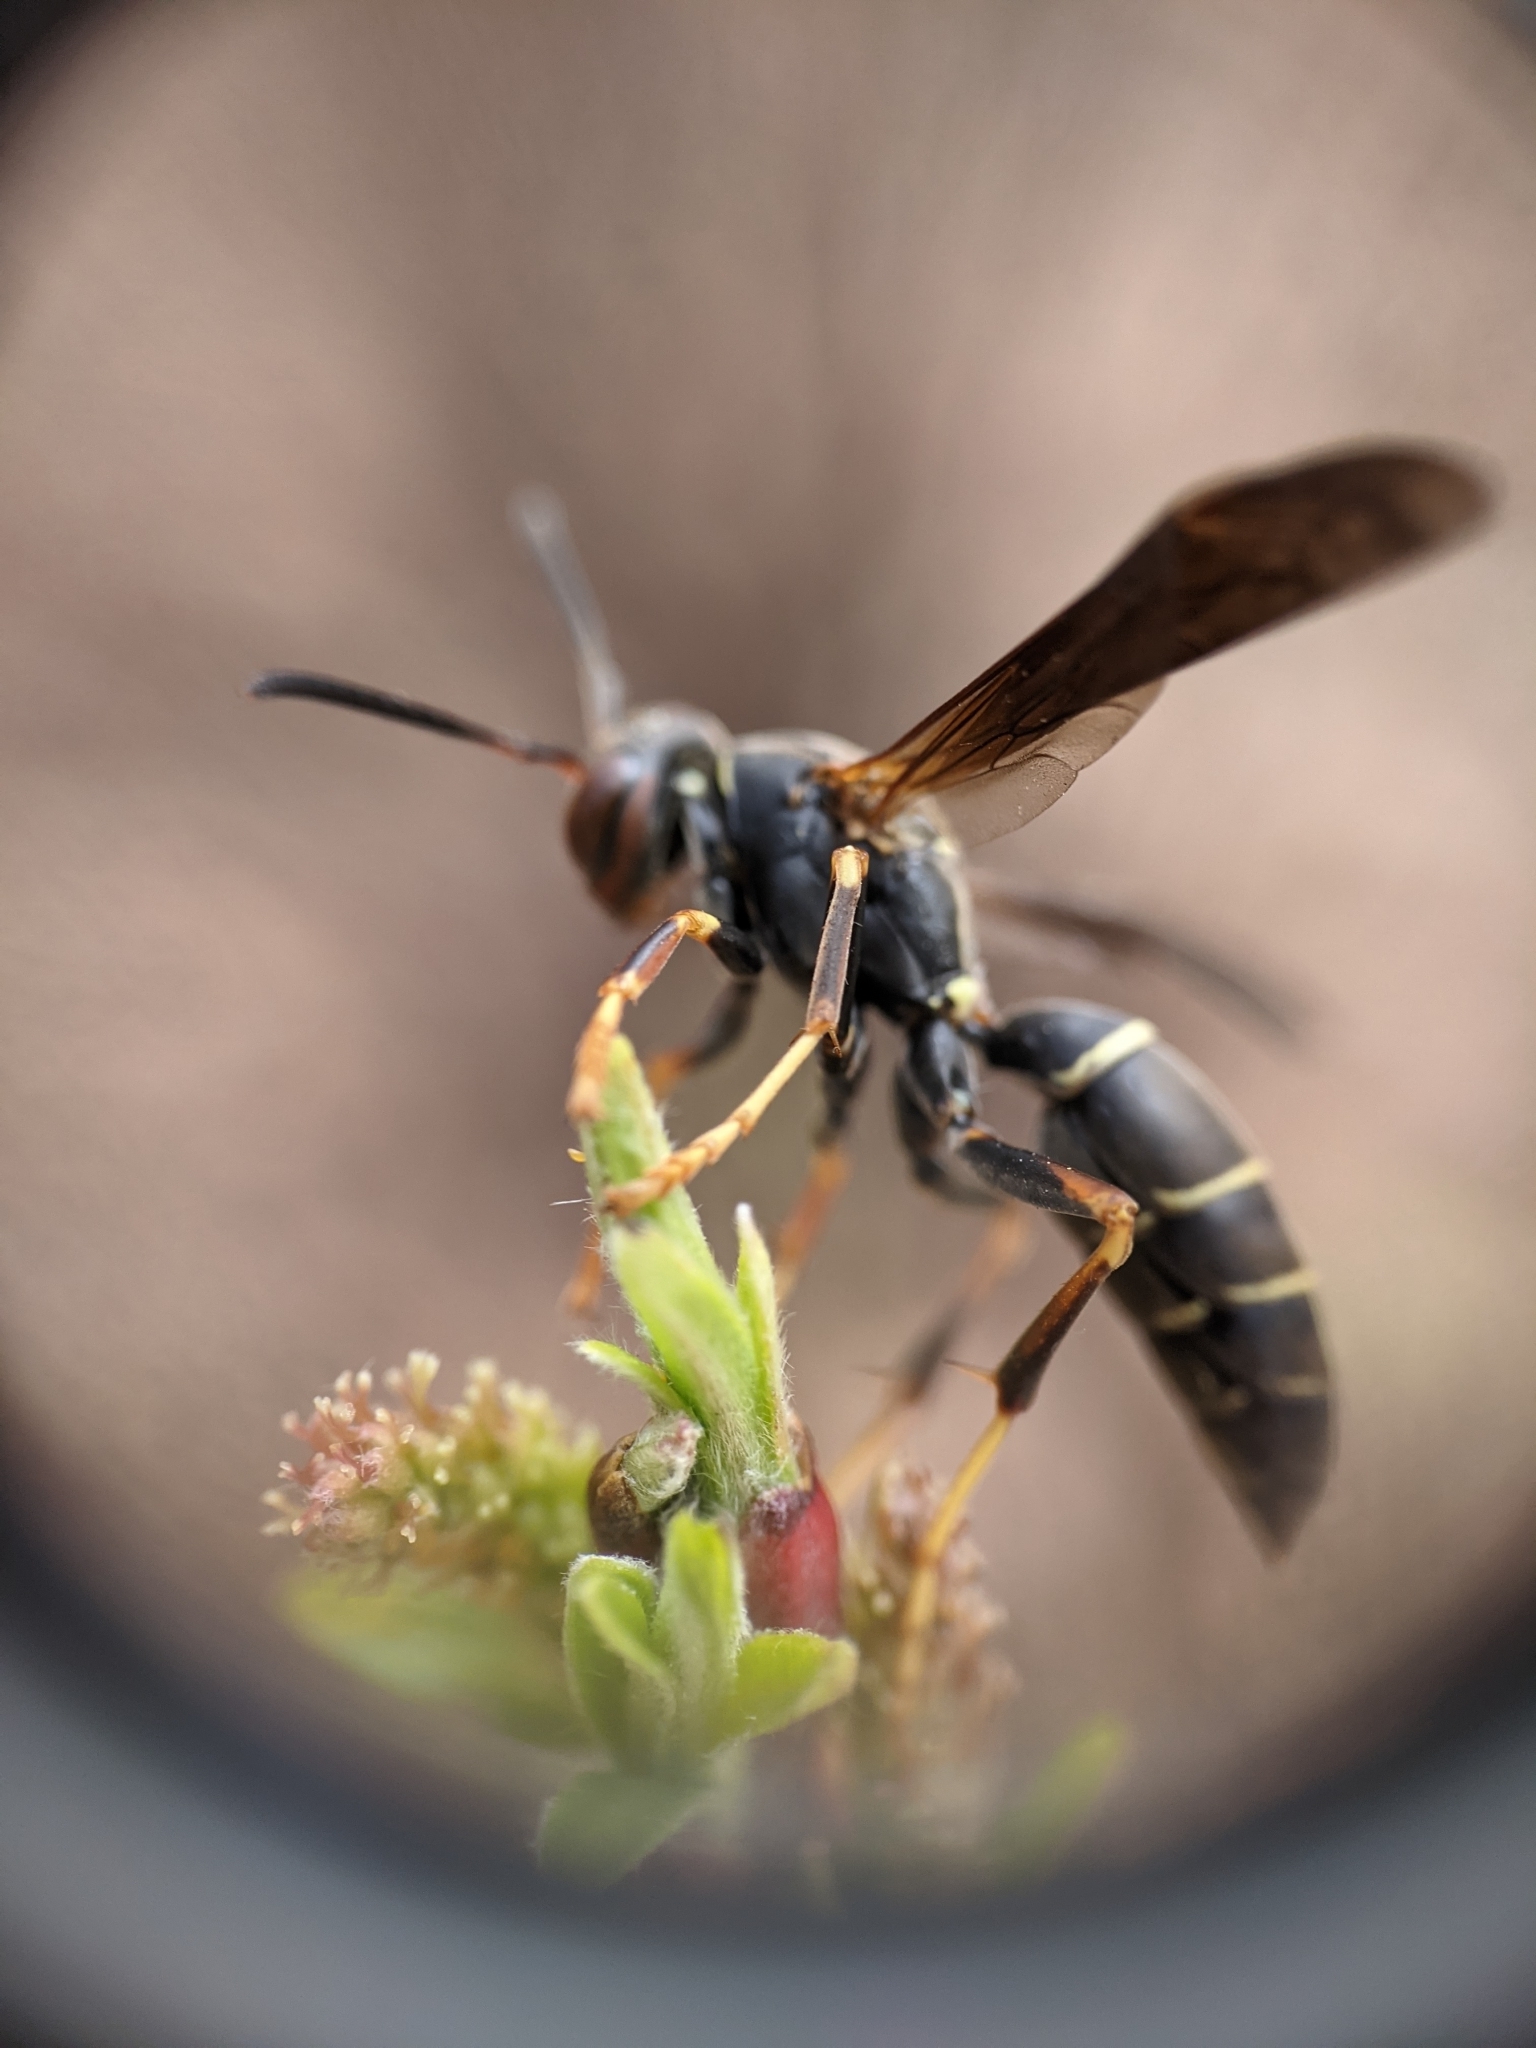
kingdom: Animalia
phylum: Arthropoda
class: Insecta
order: Hymenoptera
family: Eumenidae
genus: Polistes
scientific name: Polistes fuscatus
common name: Dark paper wasp
